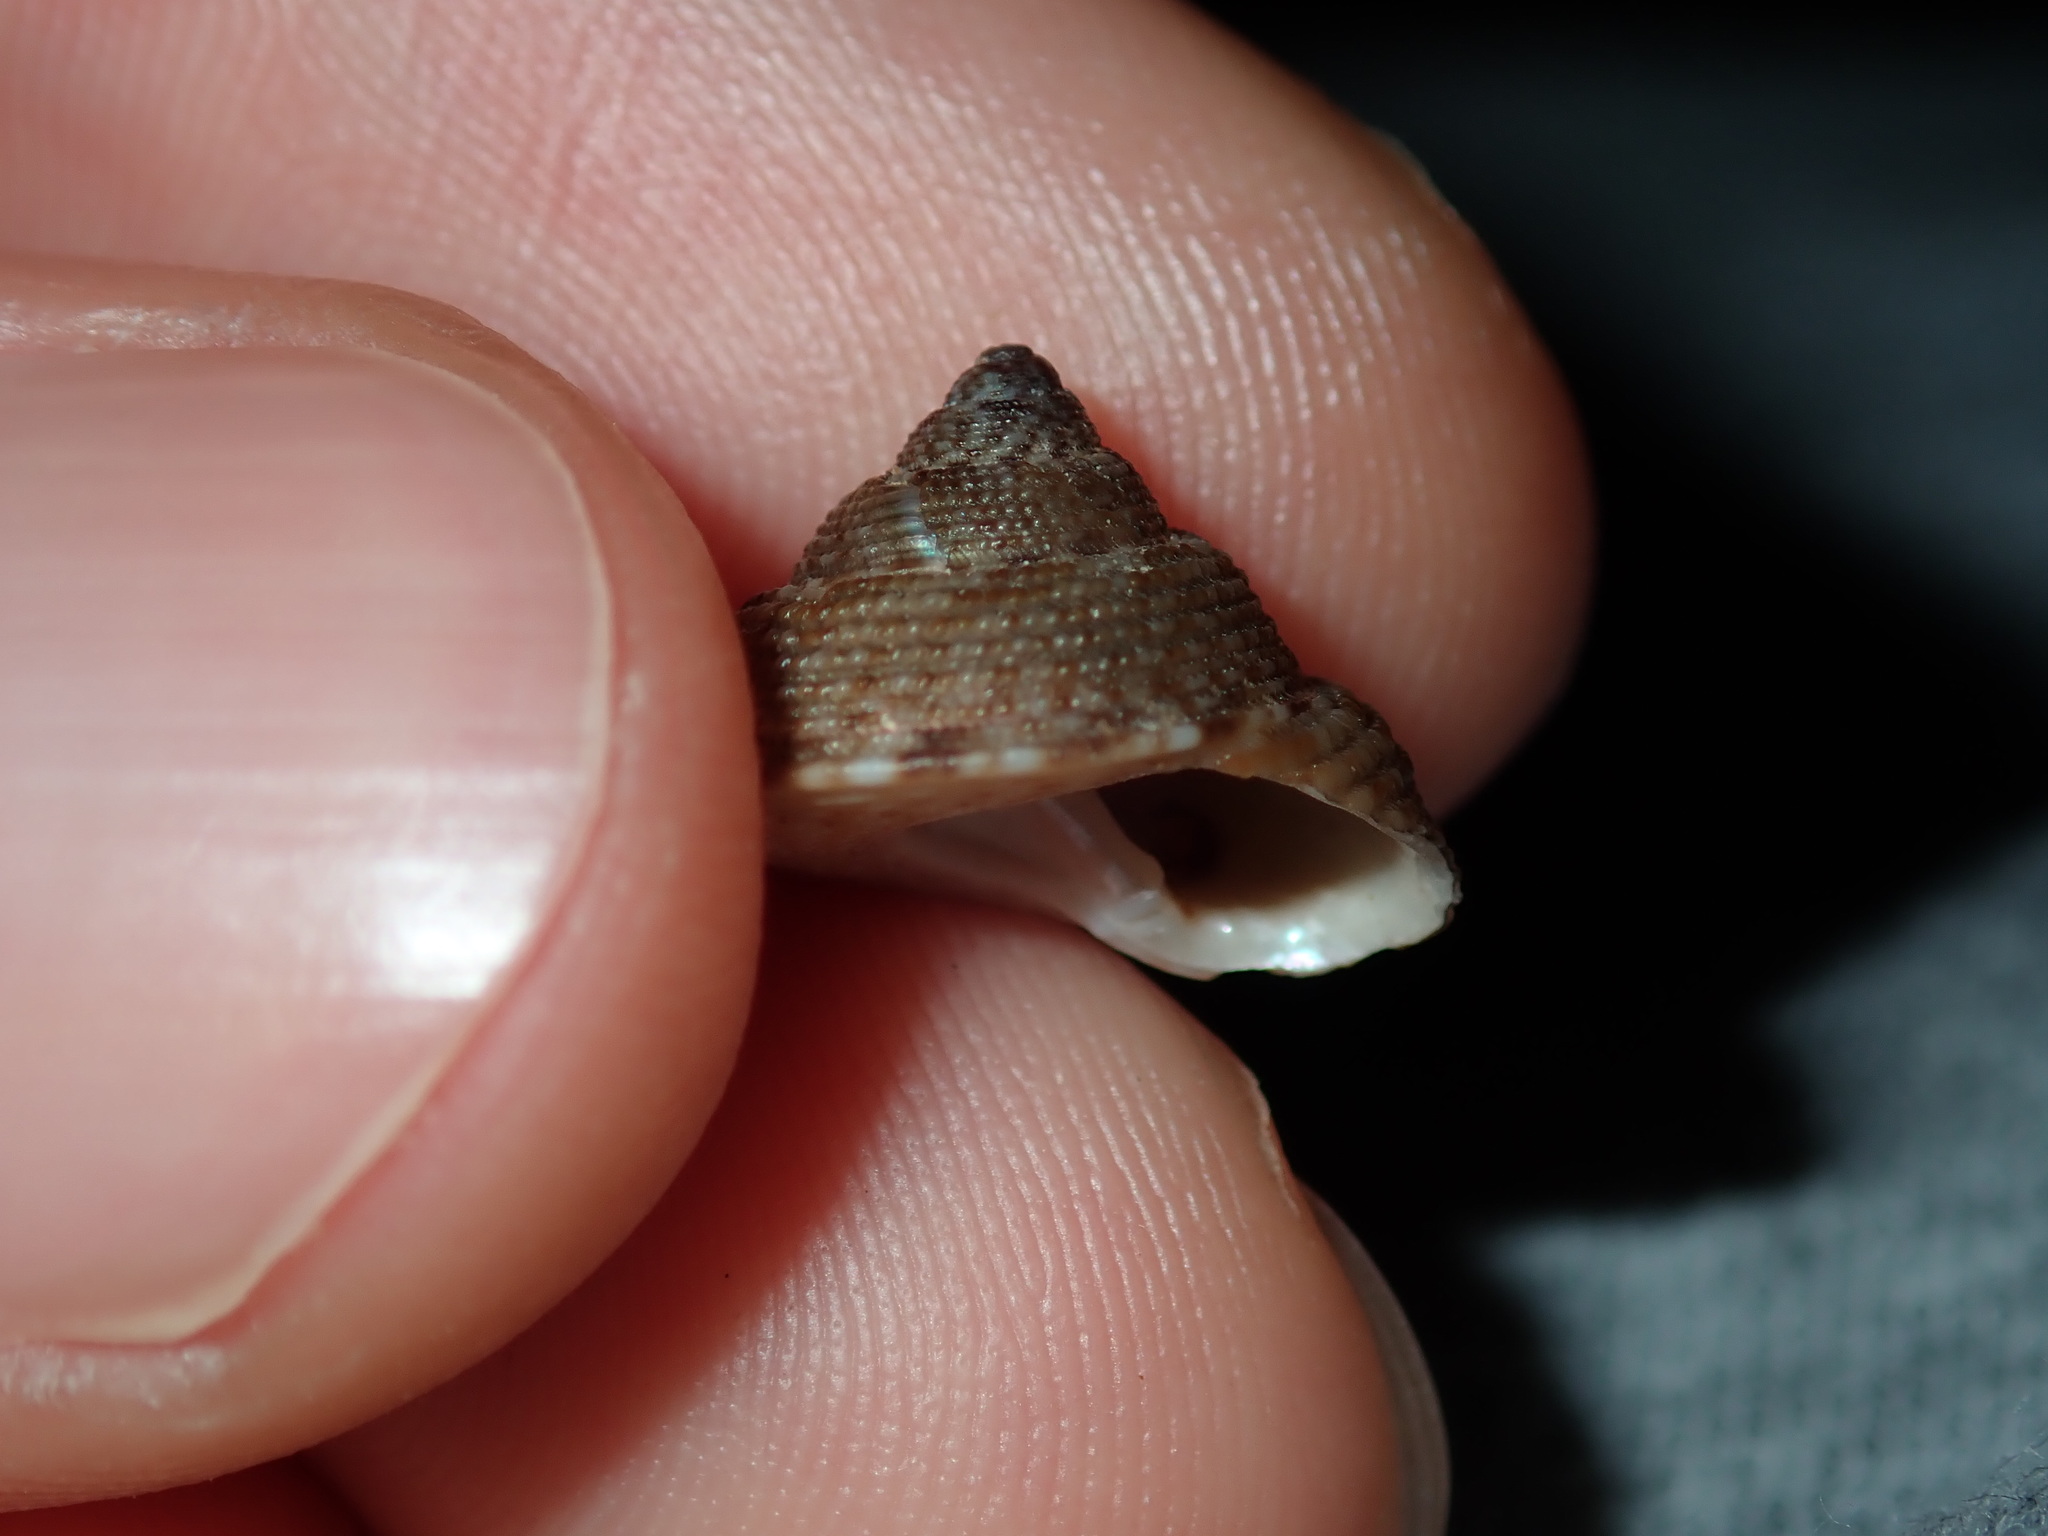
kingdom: Animalia
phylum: Mollusca
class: Gastropoda
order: Trochida
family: Trochidae
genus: Clanculus
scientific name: Clanculus brunneus
